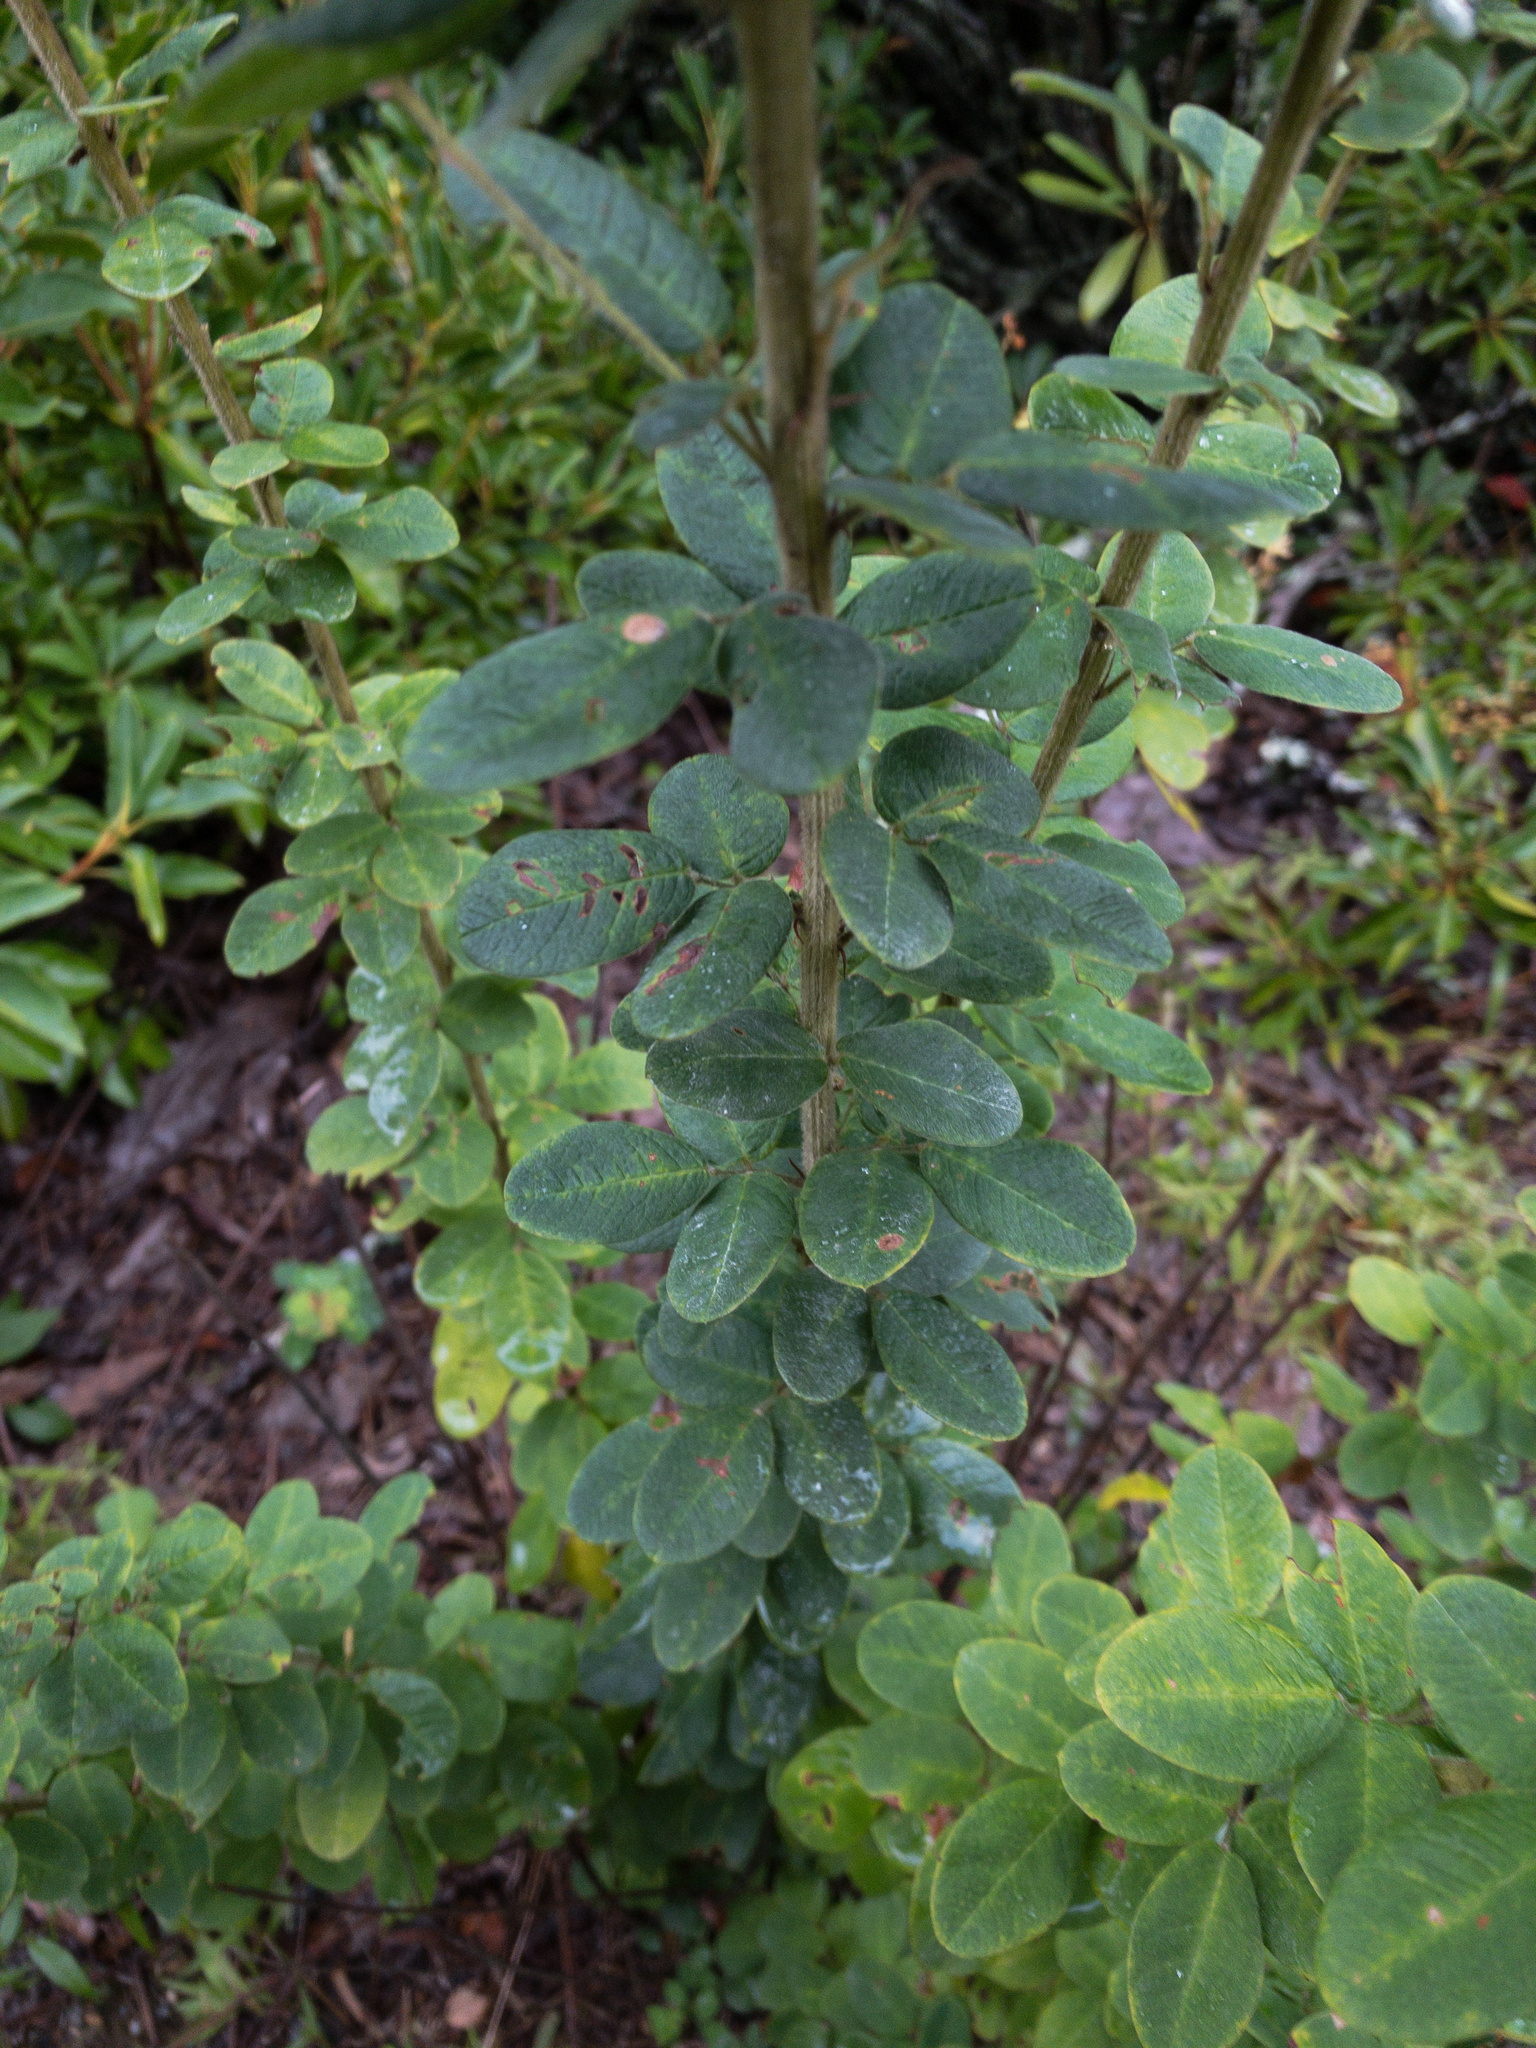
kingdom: Plantae
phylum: Tracheophyta
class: Magnoliopsida
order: Fabales
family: Fabaceae
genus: Lespedeza
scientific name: Lespedeza hirta
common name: Hairy lespedeza
